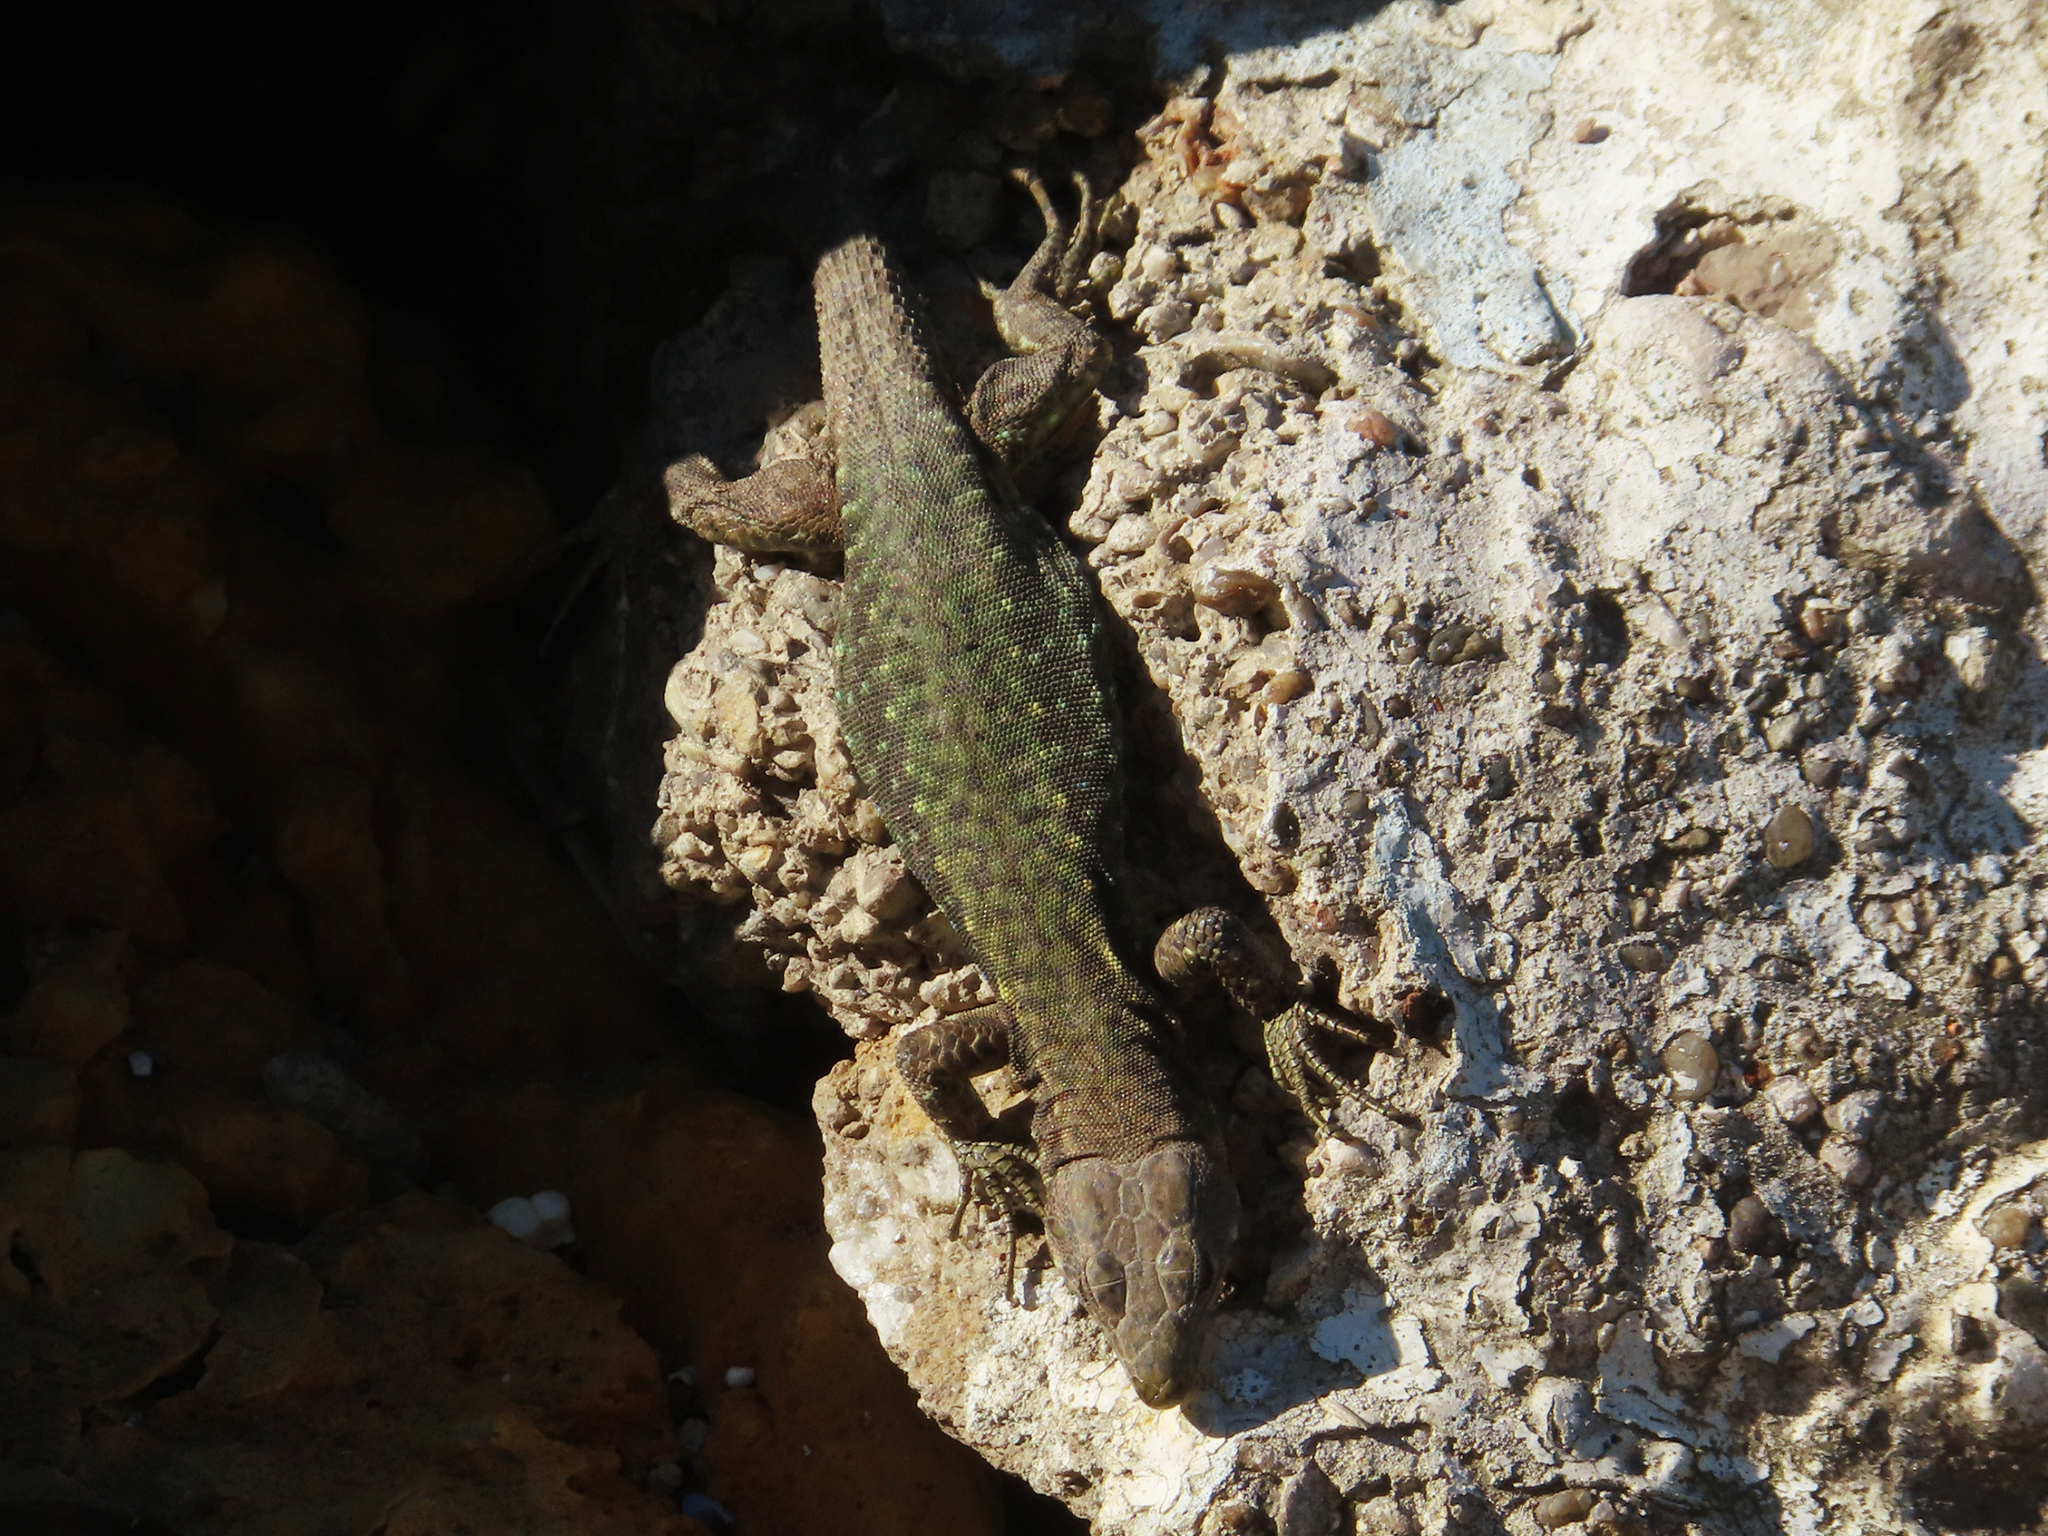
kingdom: Animalia
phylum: Chordata
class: Squamata
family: Lacertidae
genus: Darevskia
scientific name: Darevskia bithynica
